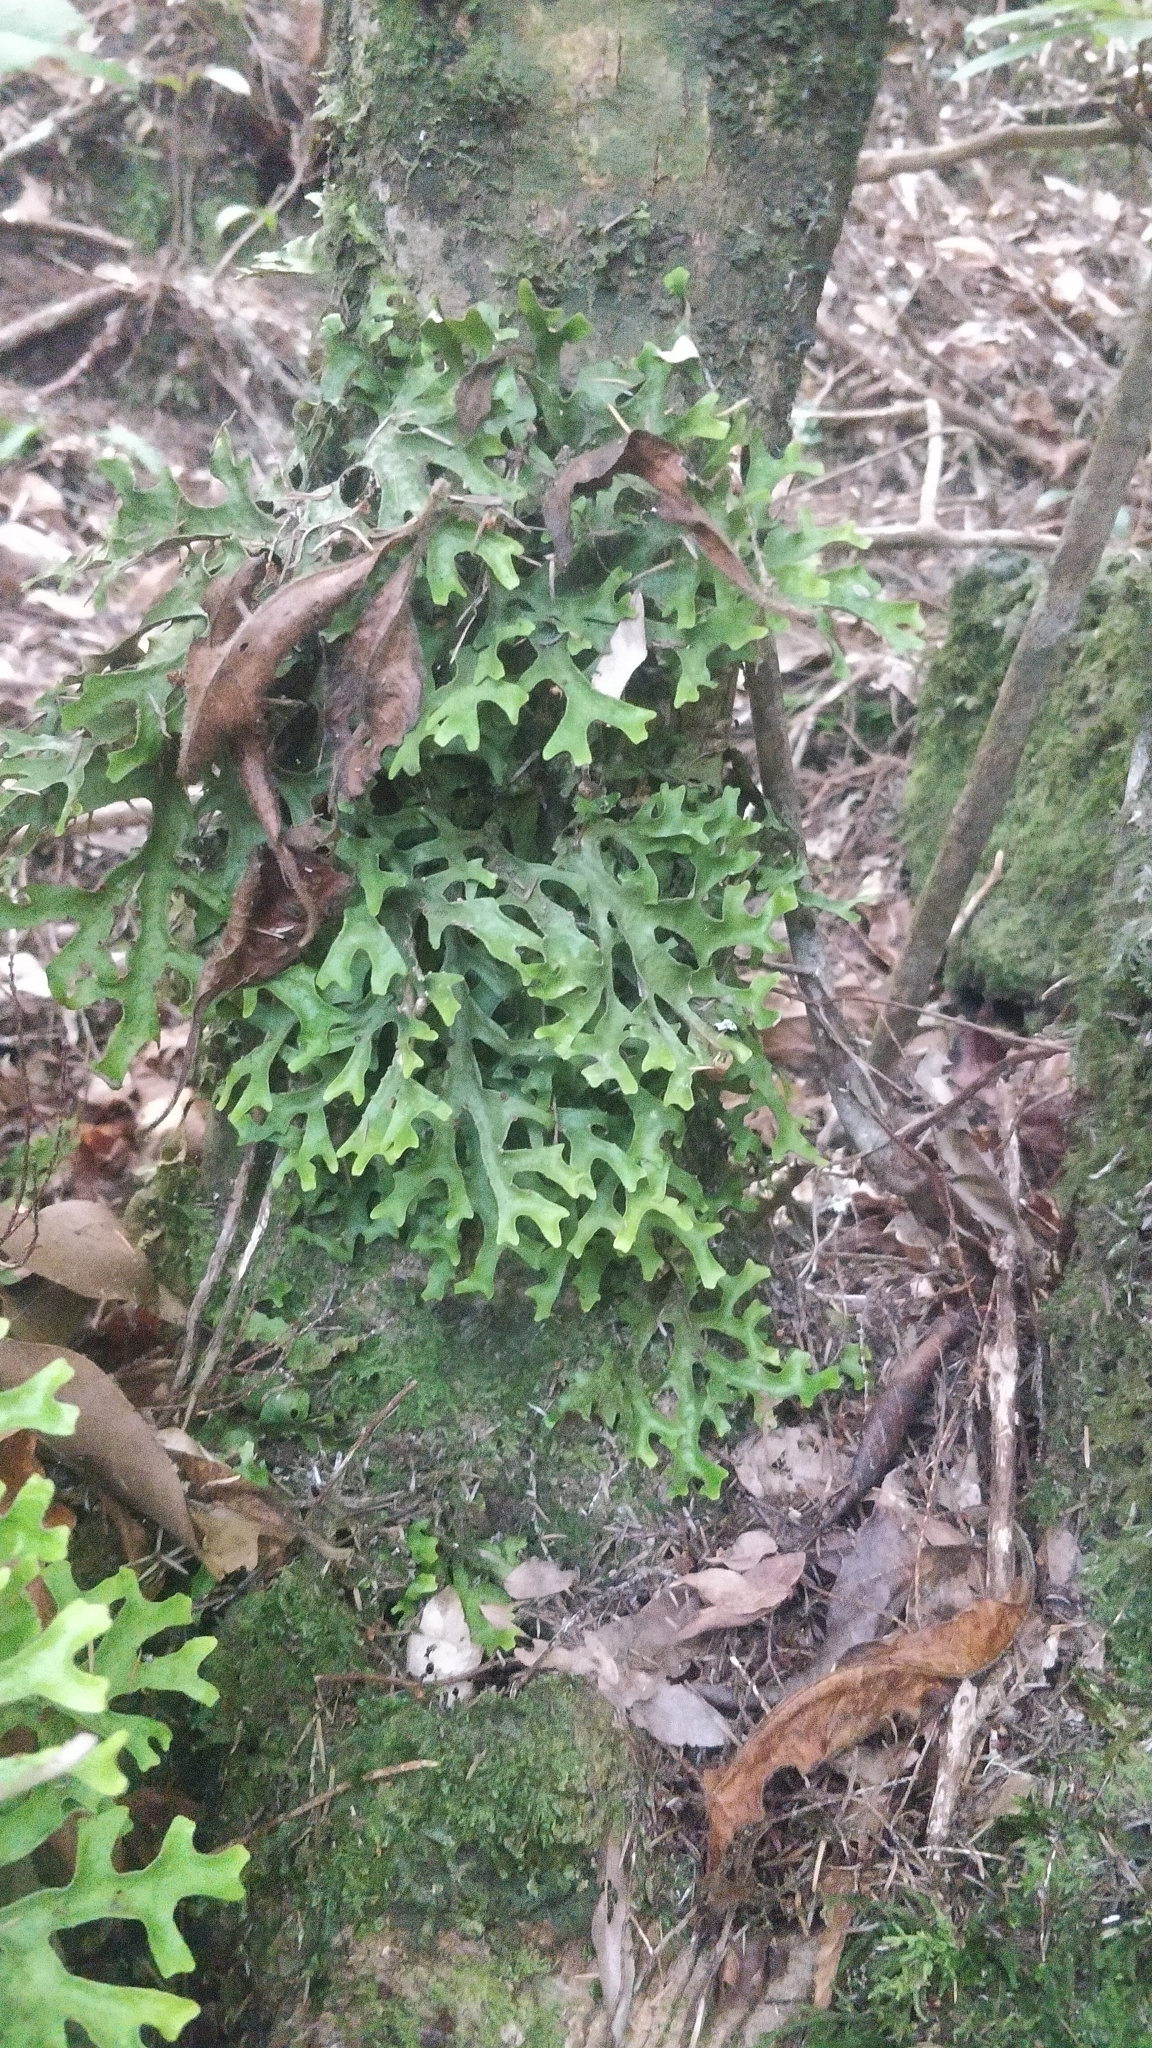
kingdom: Fungi
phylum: Ascomycota
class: Lecanoromycetes
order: Peltigerales
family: Lobariaceae
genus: Sticta
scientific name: Sticta canariensis
